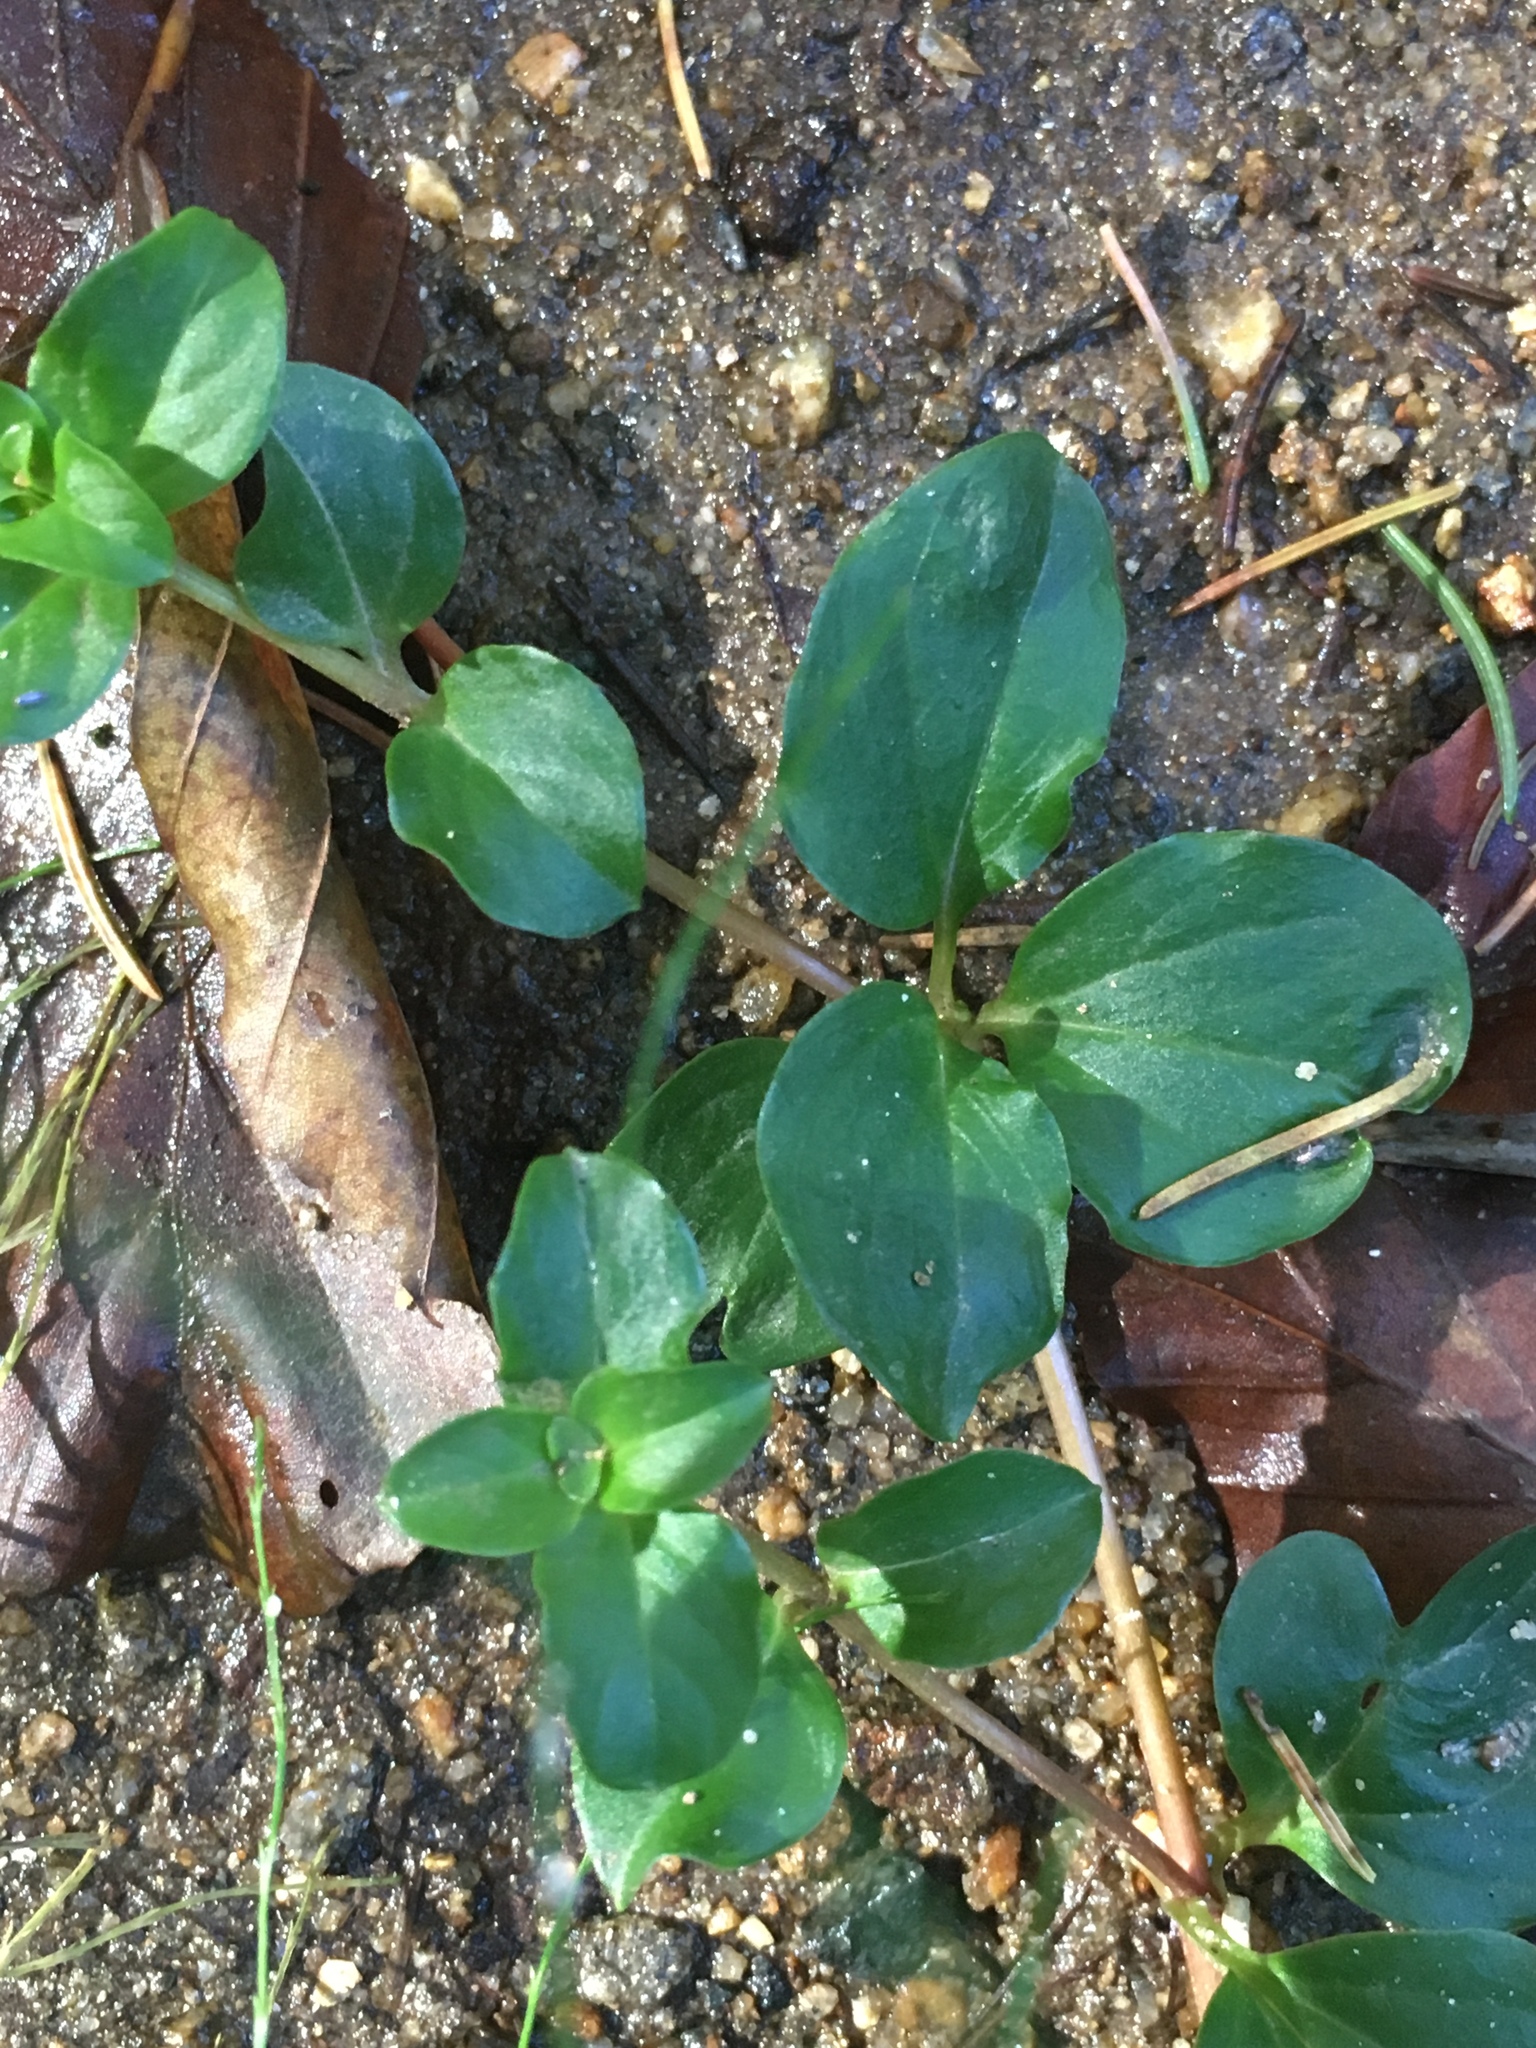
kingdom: Plantae
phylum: Tracheophyta
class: Magnoliopsida
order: Gentianales
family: Apocynaceae
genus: Vinca
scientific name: Vinca minor
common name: Lesser periwinkle
